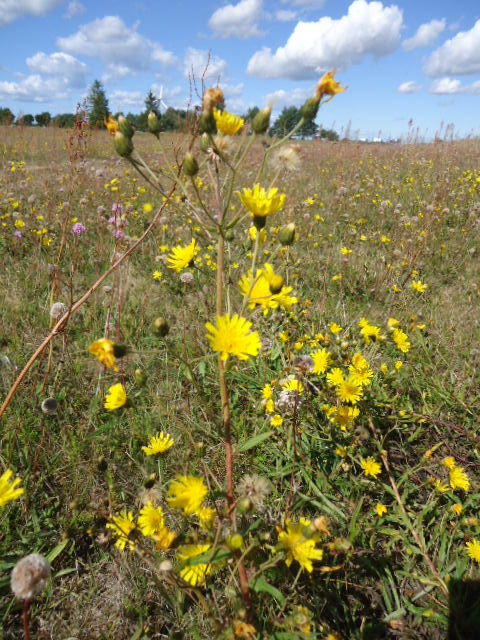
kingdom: Plantae
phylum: Tracheophyta
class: Magnoliopsida
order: Asterales
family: Asteraceae
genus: Hieracium
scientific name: Hieracium umbellatum
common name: Northern hawkweed
